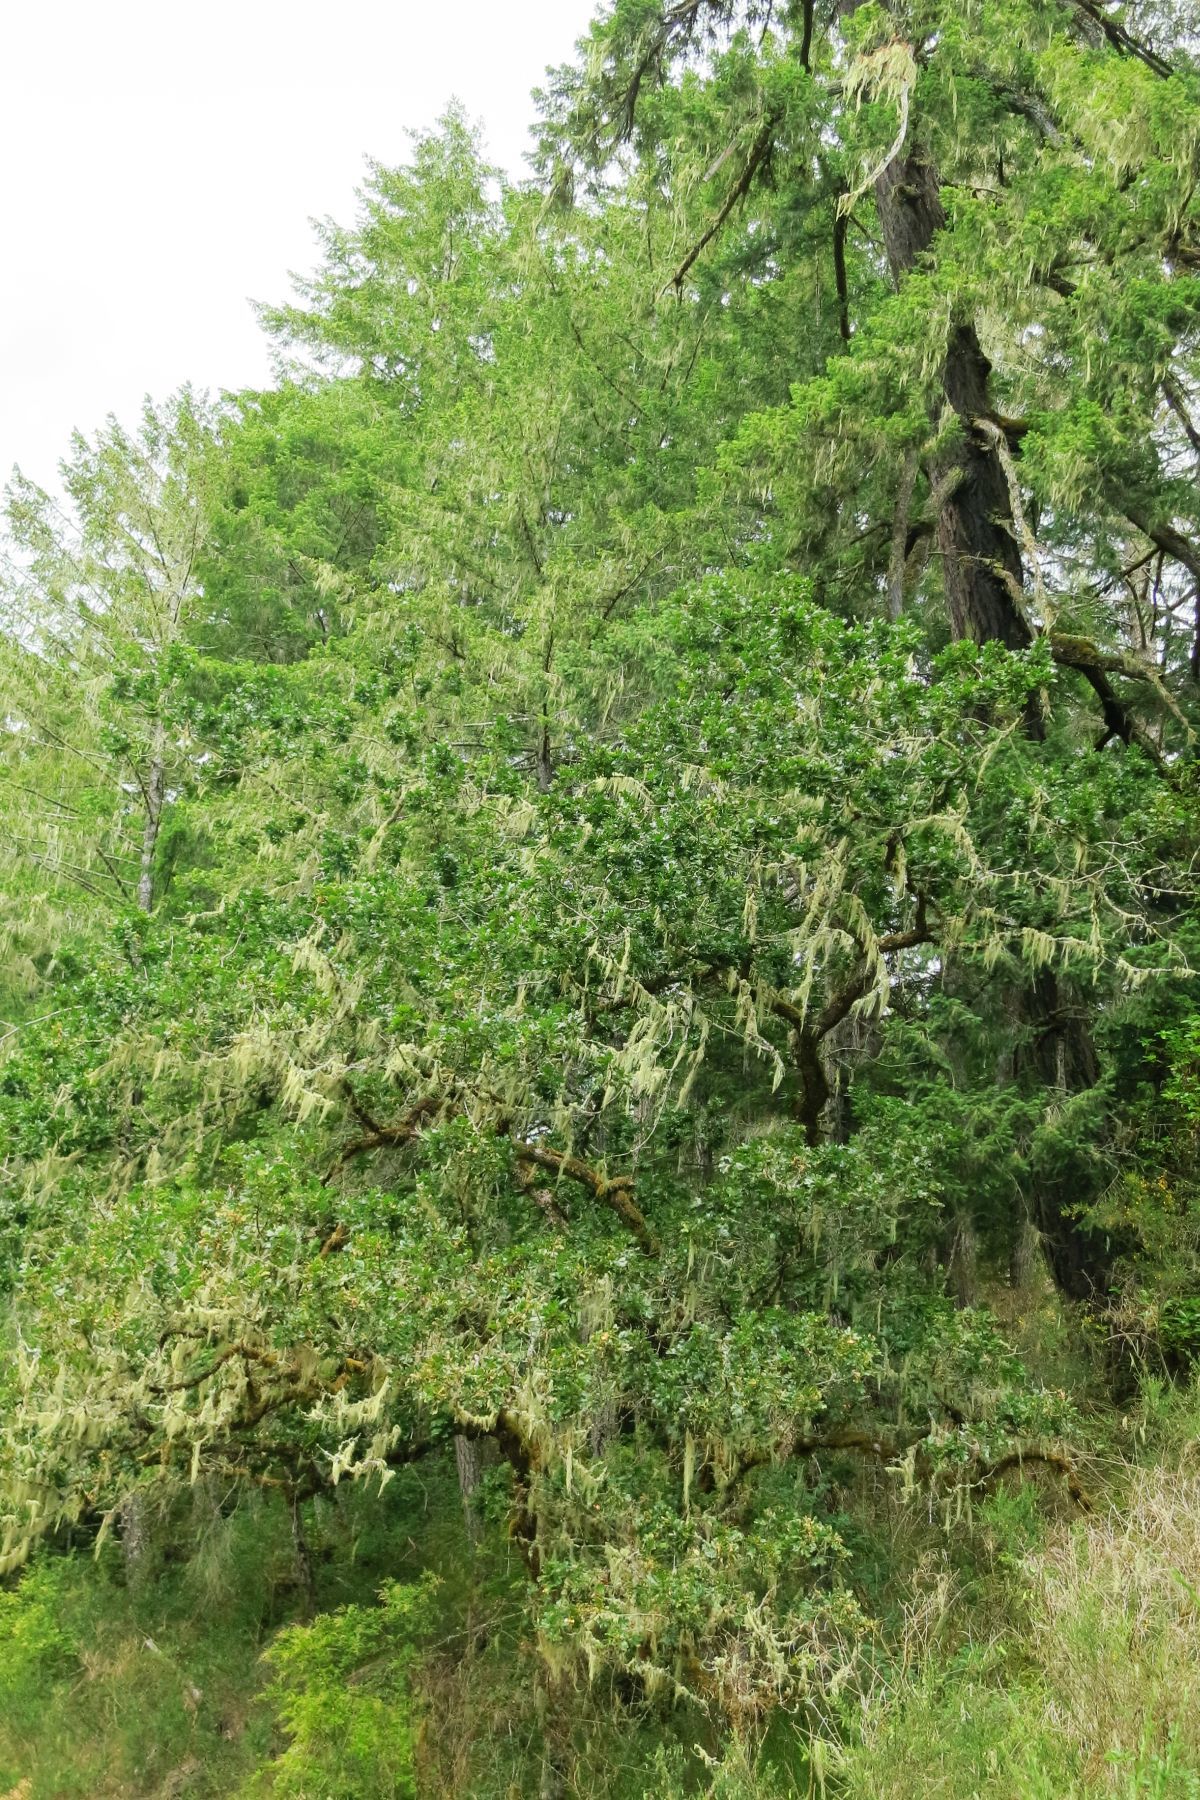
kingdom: Plantae
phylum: Tracheophyta
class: Magnoliopsida
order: Fagales
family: Fagaceae
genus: Quercus
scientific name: Quercus garryana
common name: Garry oak
